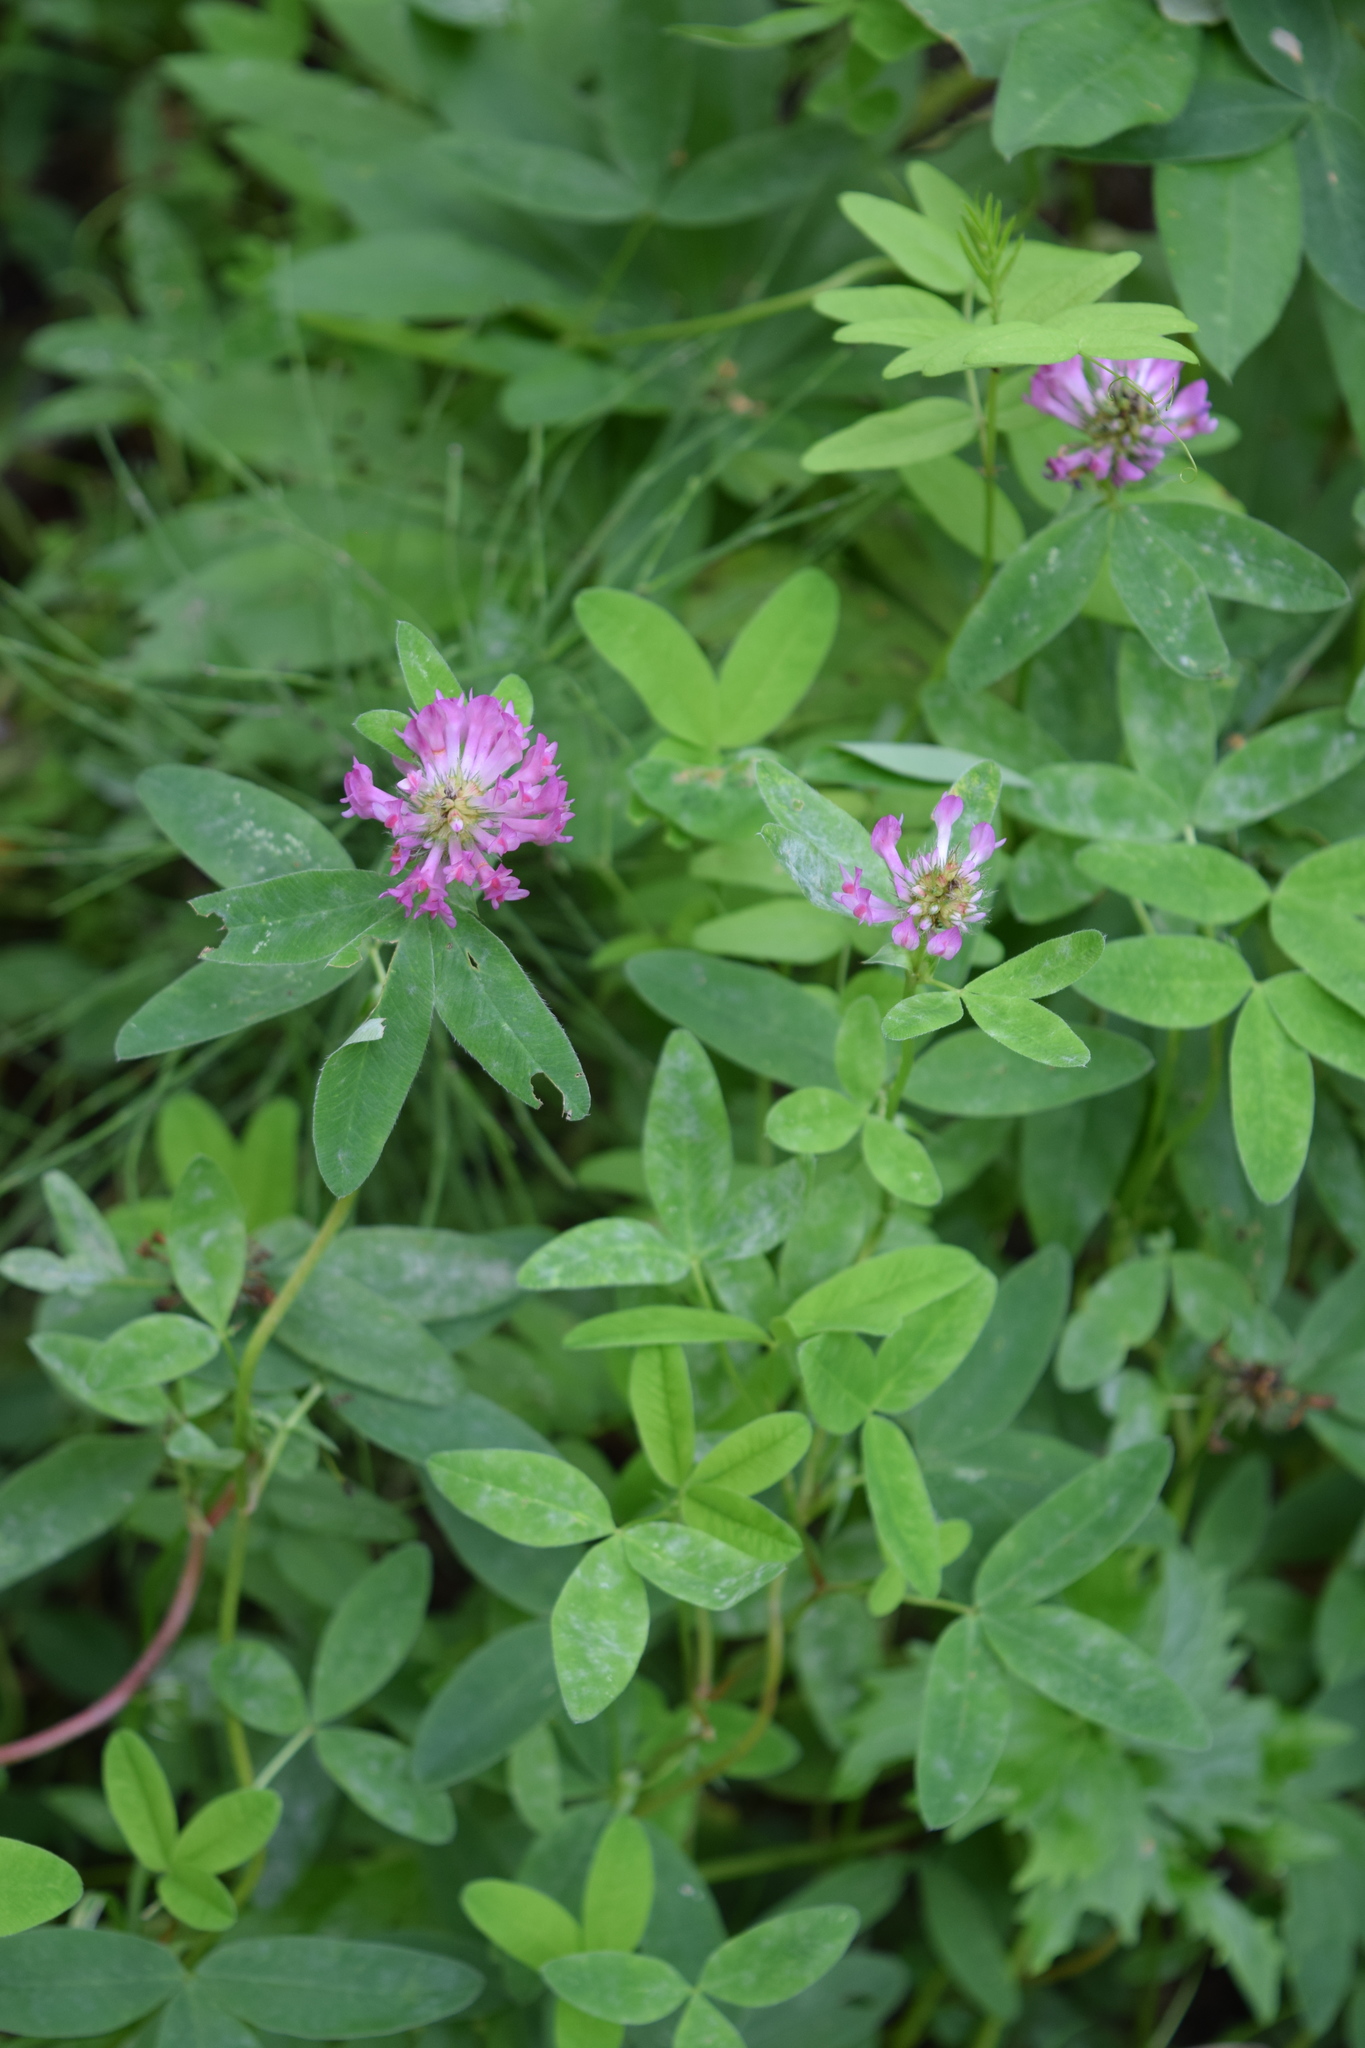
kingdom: Plantae
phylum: Tracheophyta
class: Magnoliopsida
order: Fabales
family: Fabaceae
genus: Trifolium
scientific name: Trifolium medium
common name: Zigzag clover
